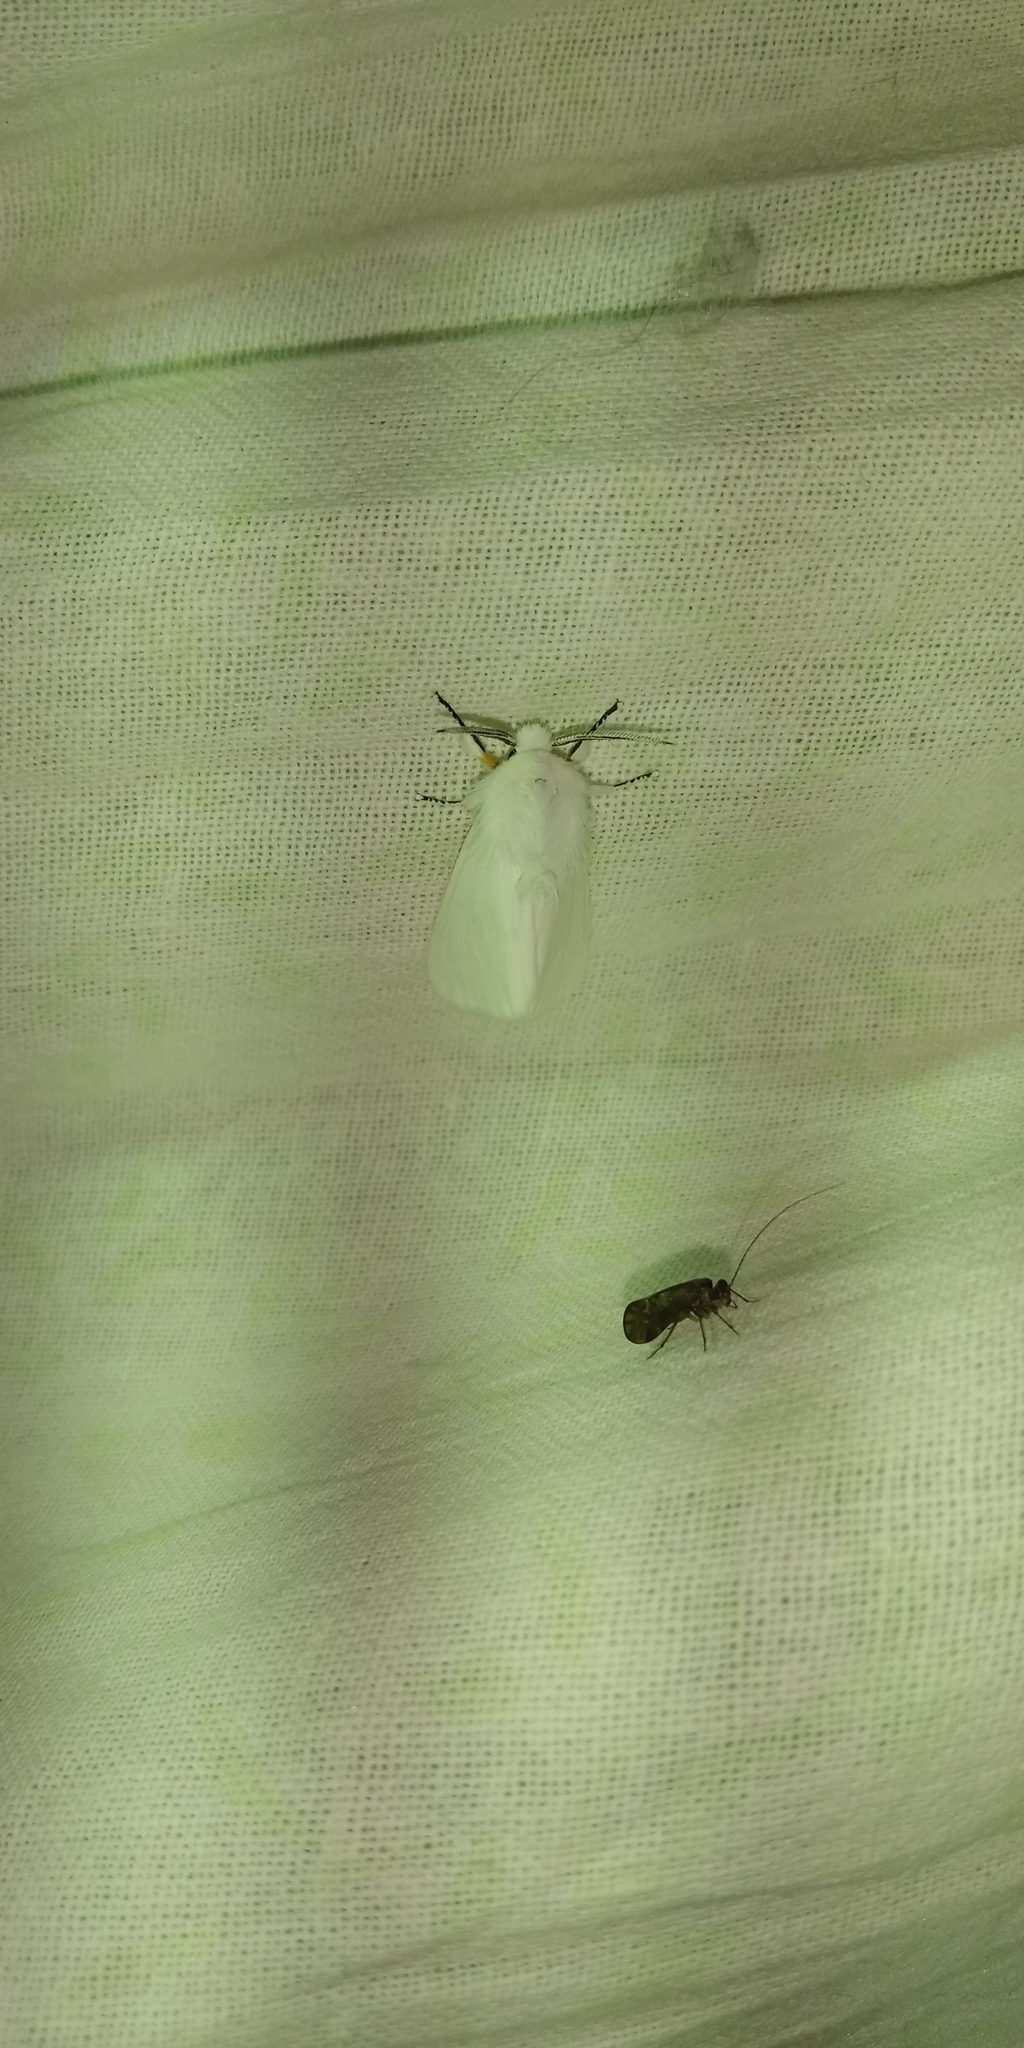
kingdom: Animalia
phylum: Arthropoda
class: Insecta
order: Lepidoptera
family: Erebidae
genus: Diaphora
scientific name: Diaphora mendica
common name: Muslin moth
